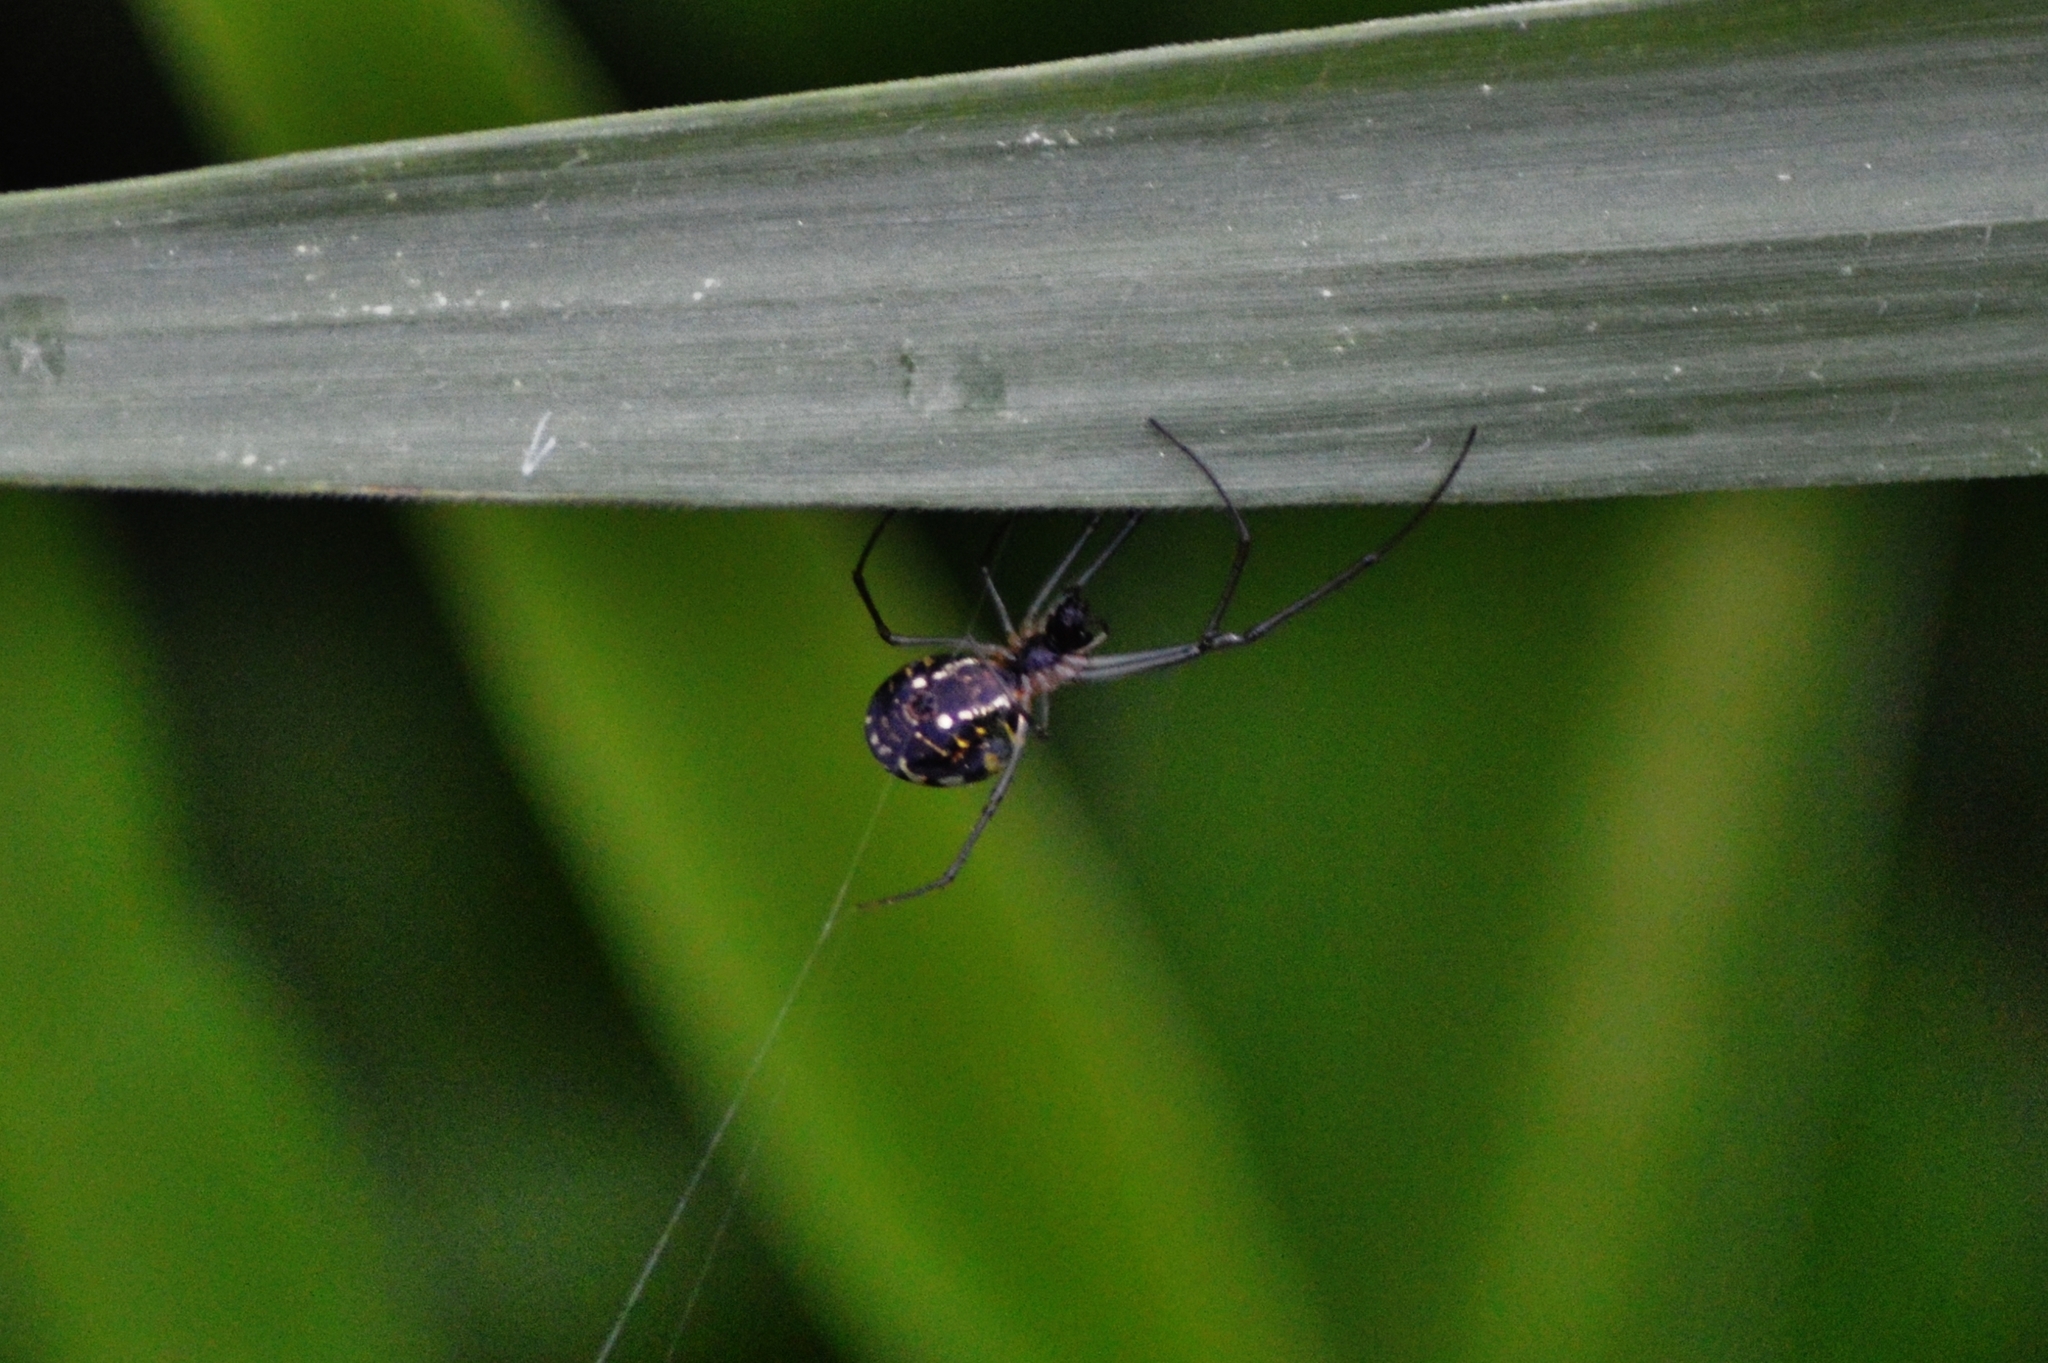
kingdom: Animalia
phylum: Arthropoda
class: Arachnida
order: Araneae
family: Tetragnathidae
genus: Leucauge
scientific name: Leucauge volupis
